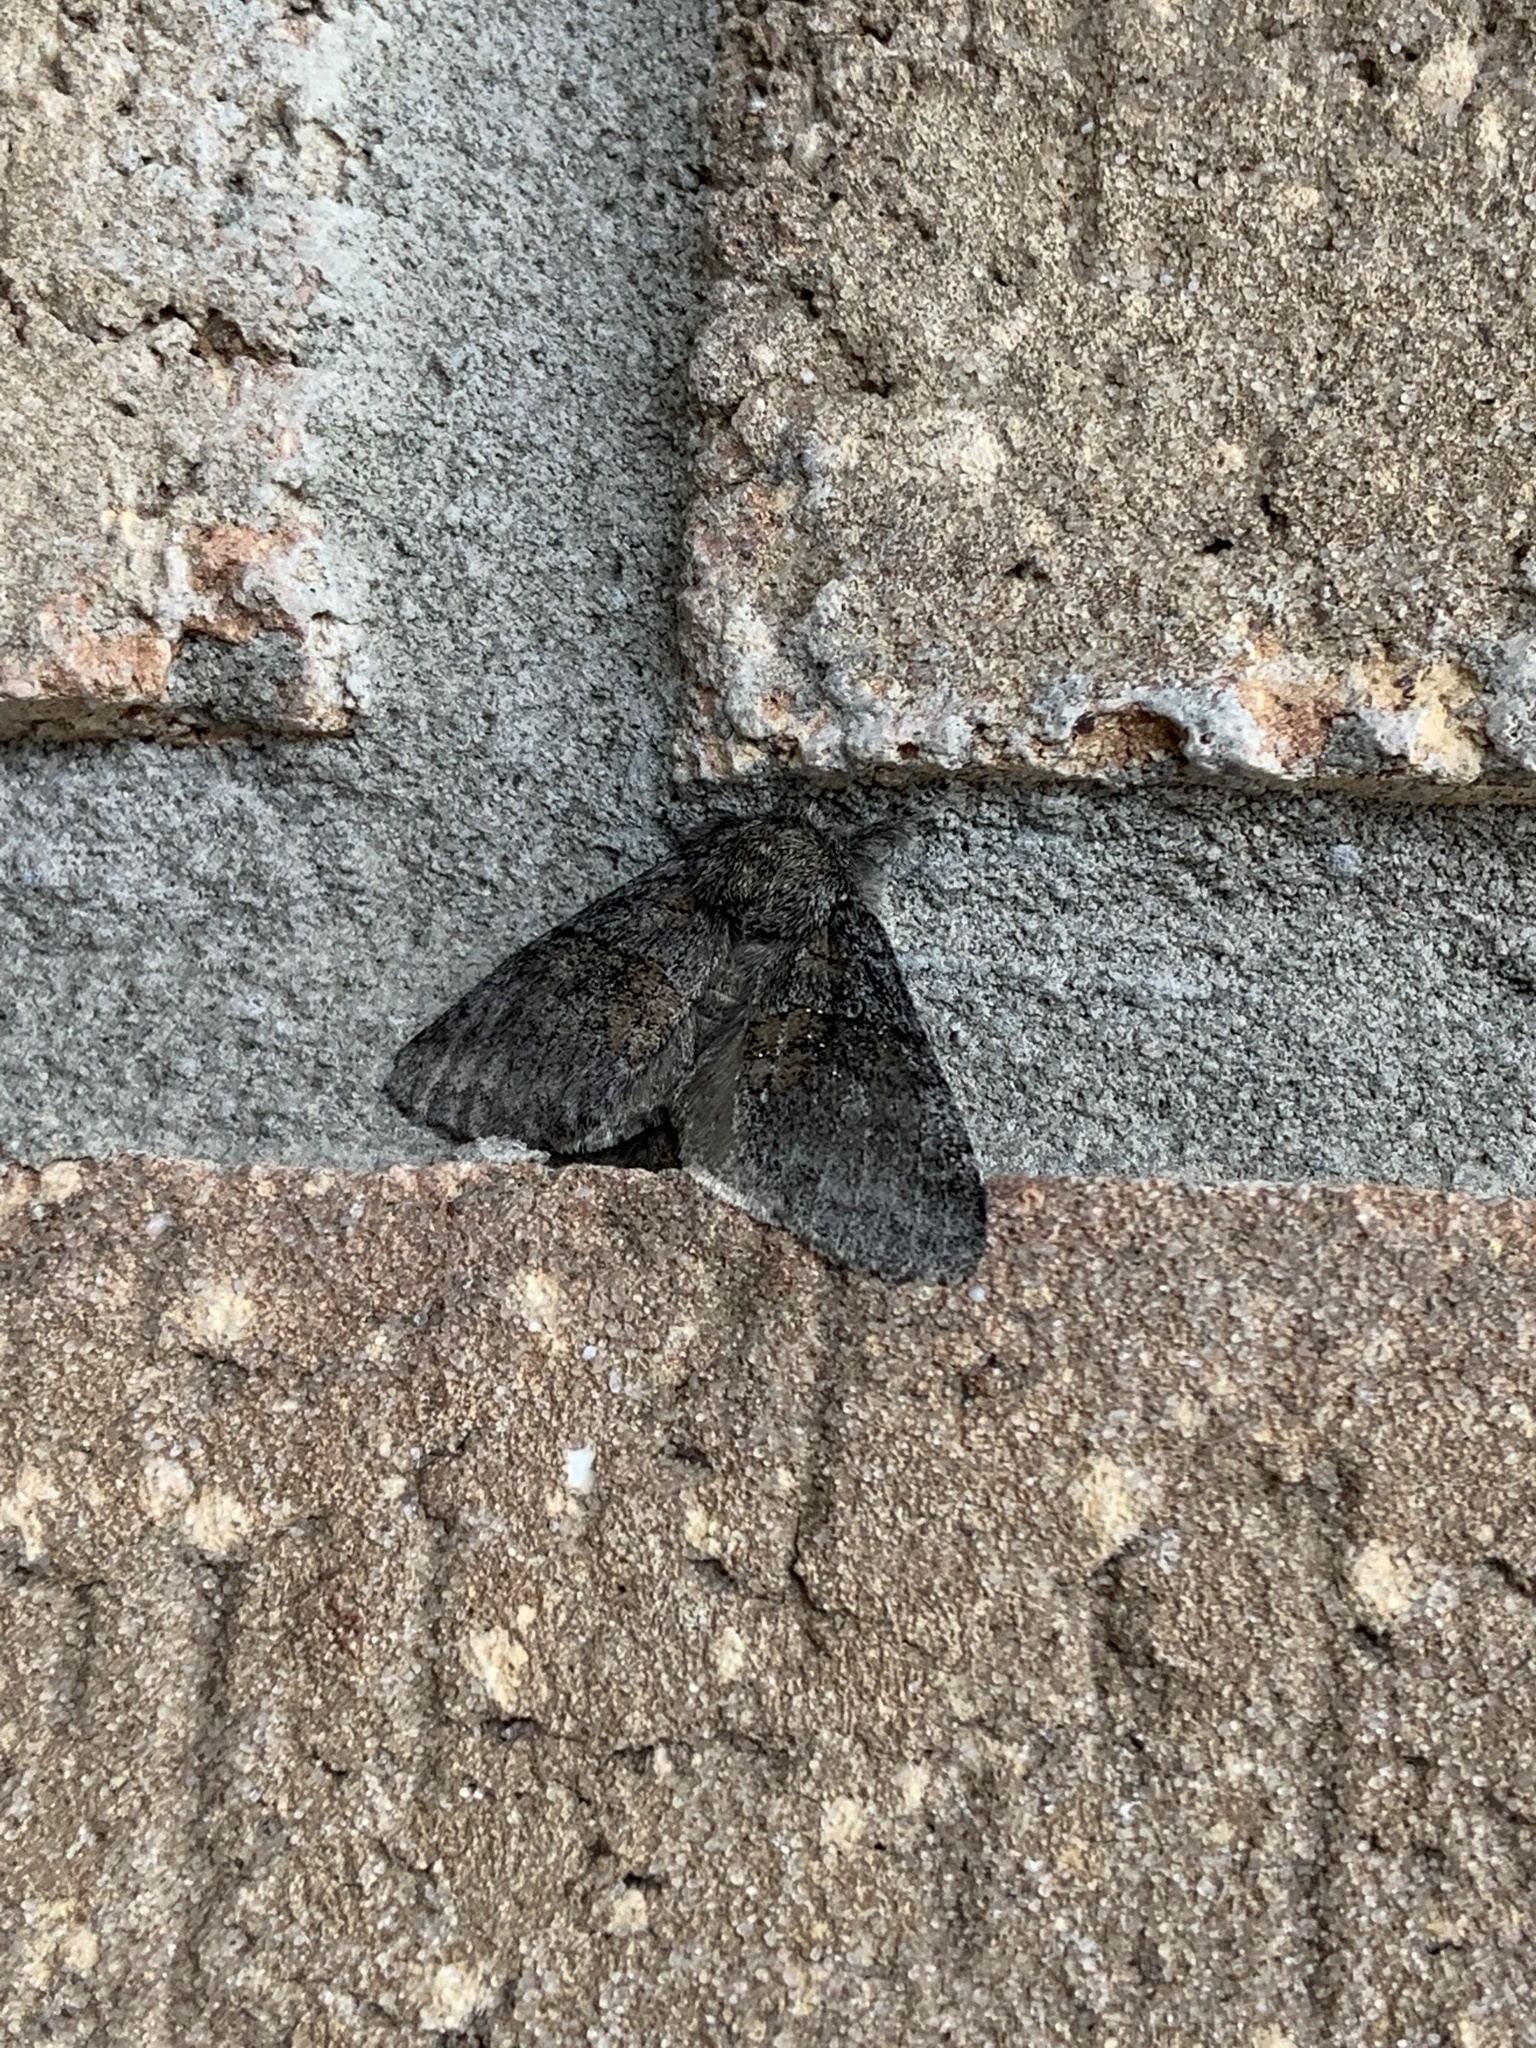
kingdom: Animalia
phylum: Arthropoda
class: Insecta
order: Lepidoptera
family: Notodontidae
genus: Gluphisia
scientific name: Gluphisia septentrionis
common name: Common gluphisia
